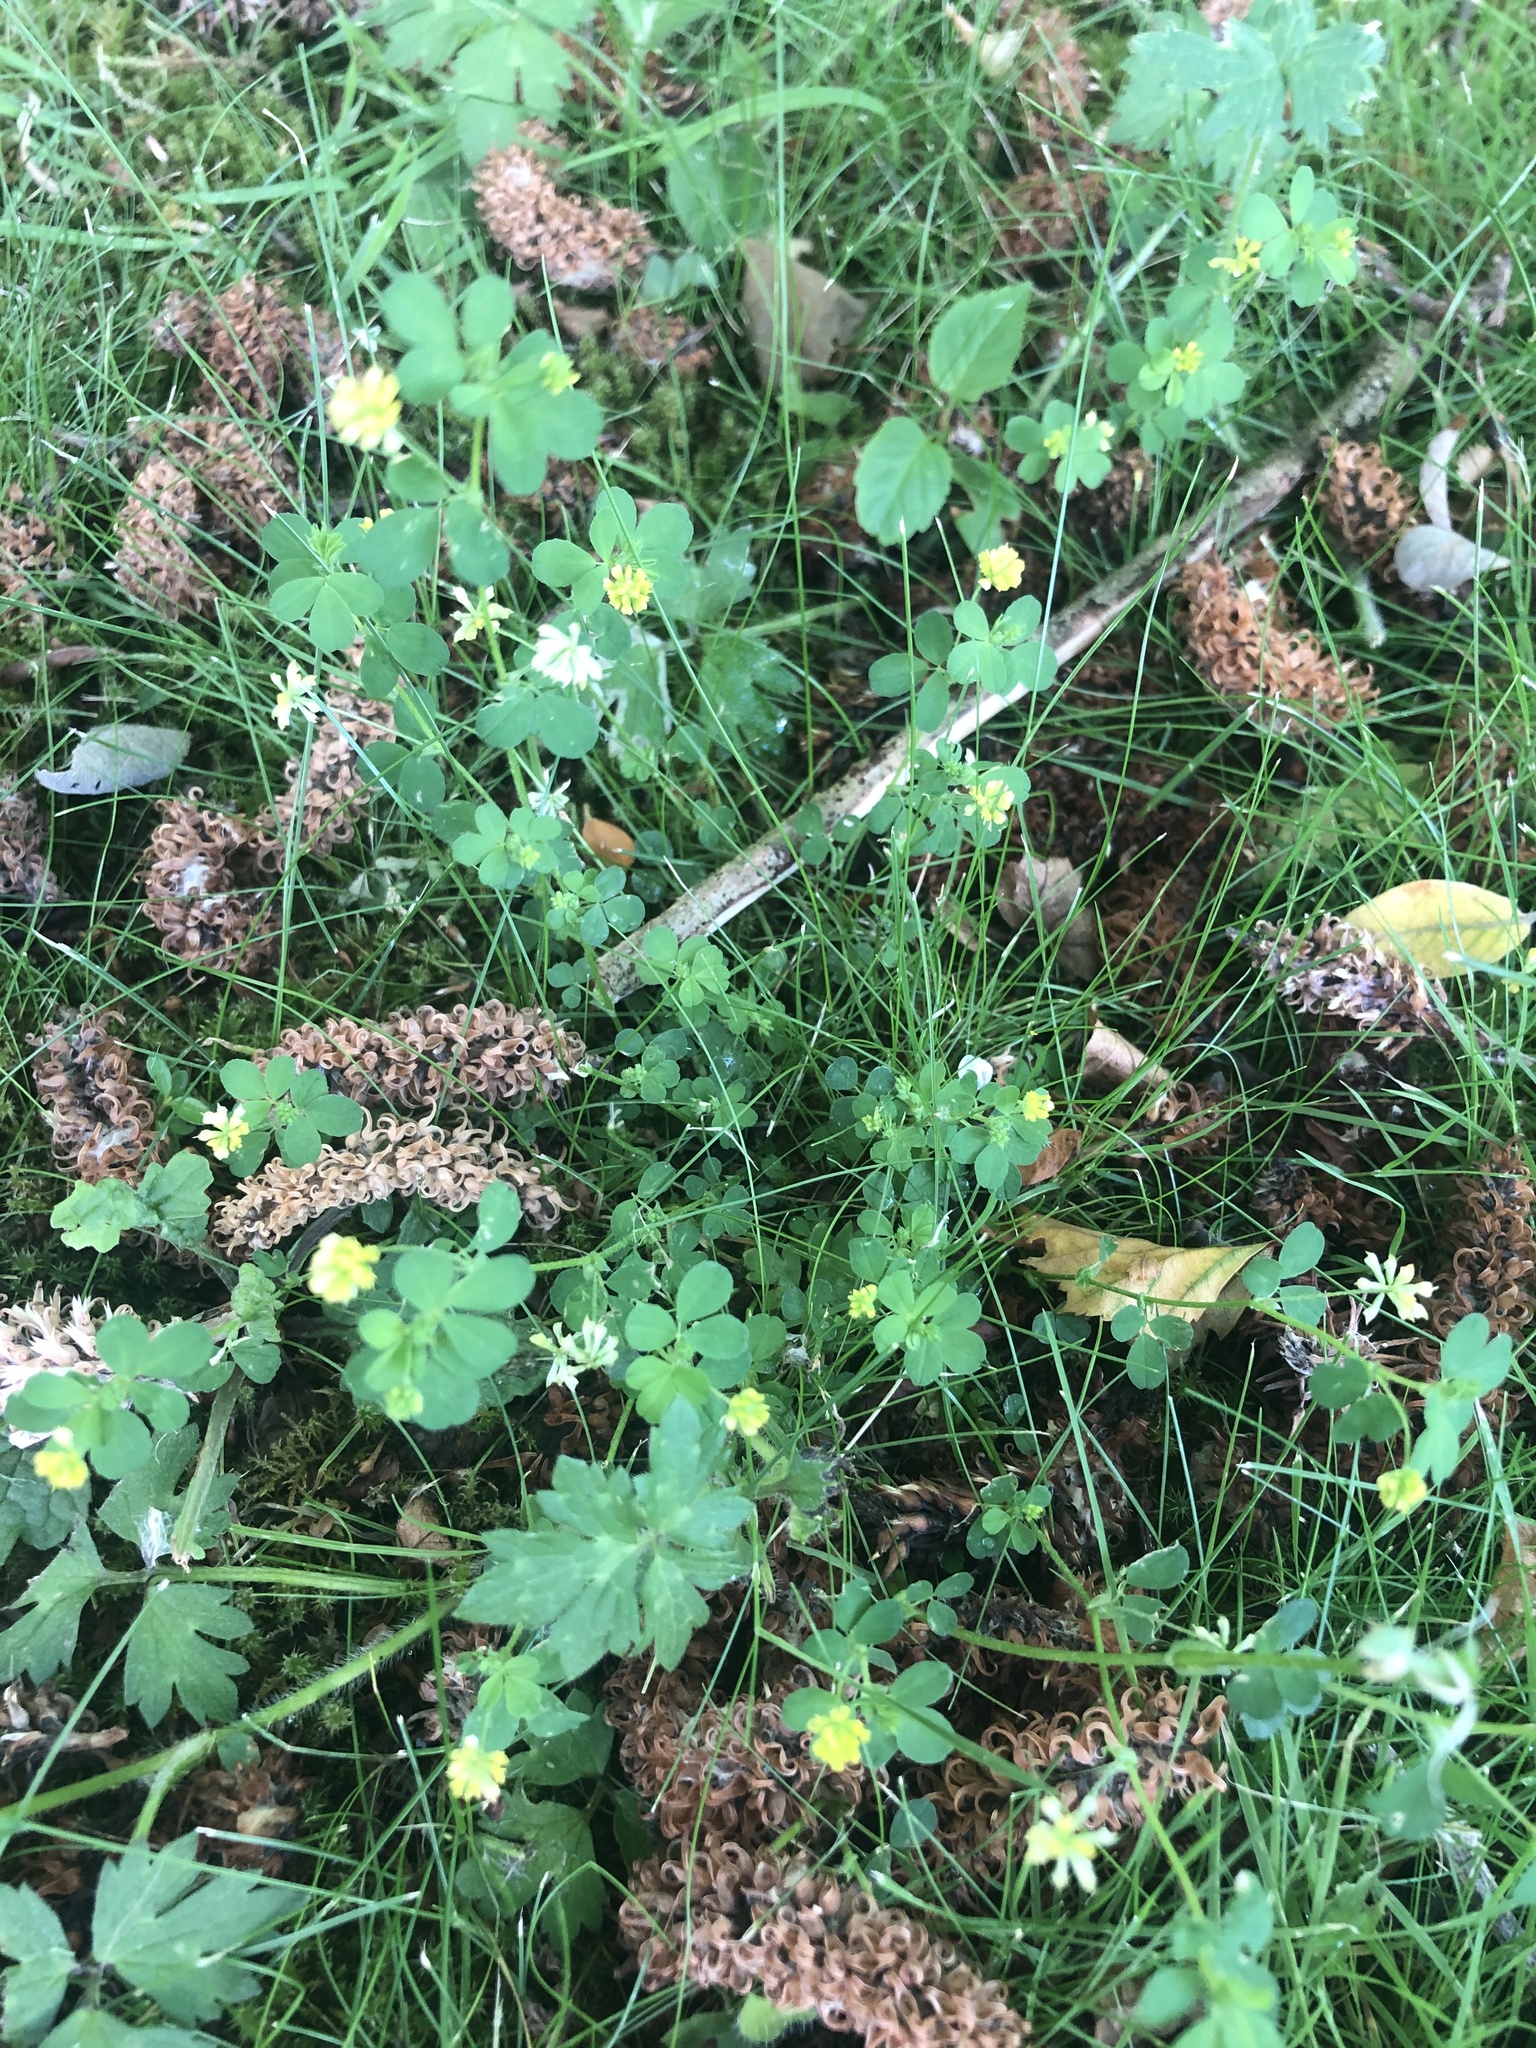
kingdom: Plantae
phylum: Tracheophyta
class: Magnoliopsida
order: Fabales
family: Fabaceae
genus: Trifolium
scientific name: Trifolium dubium
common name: Suckling clover
